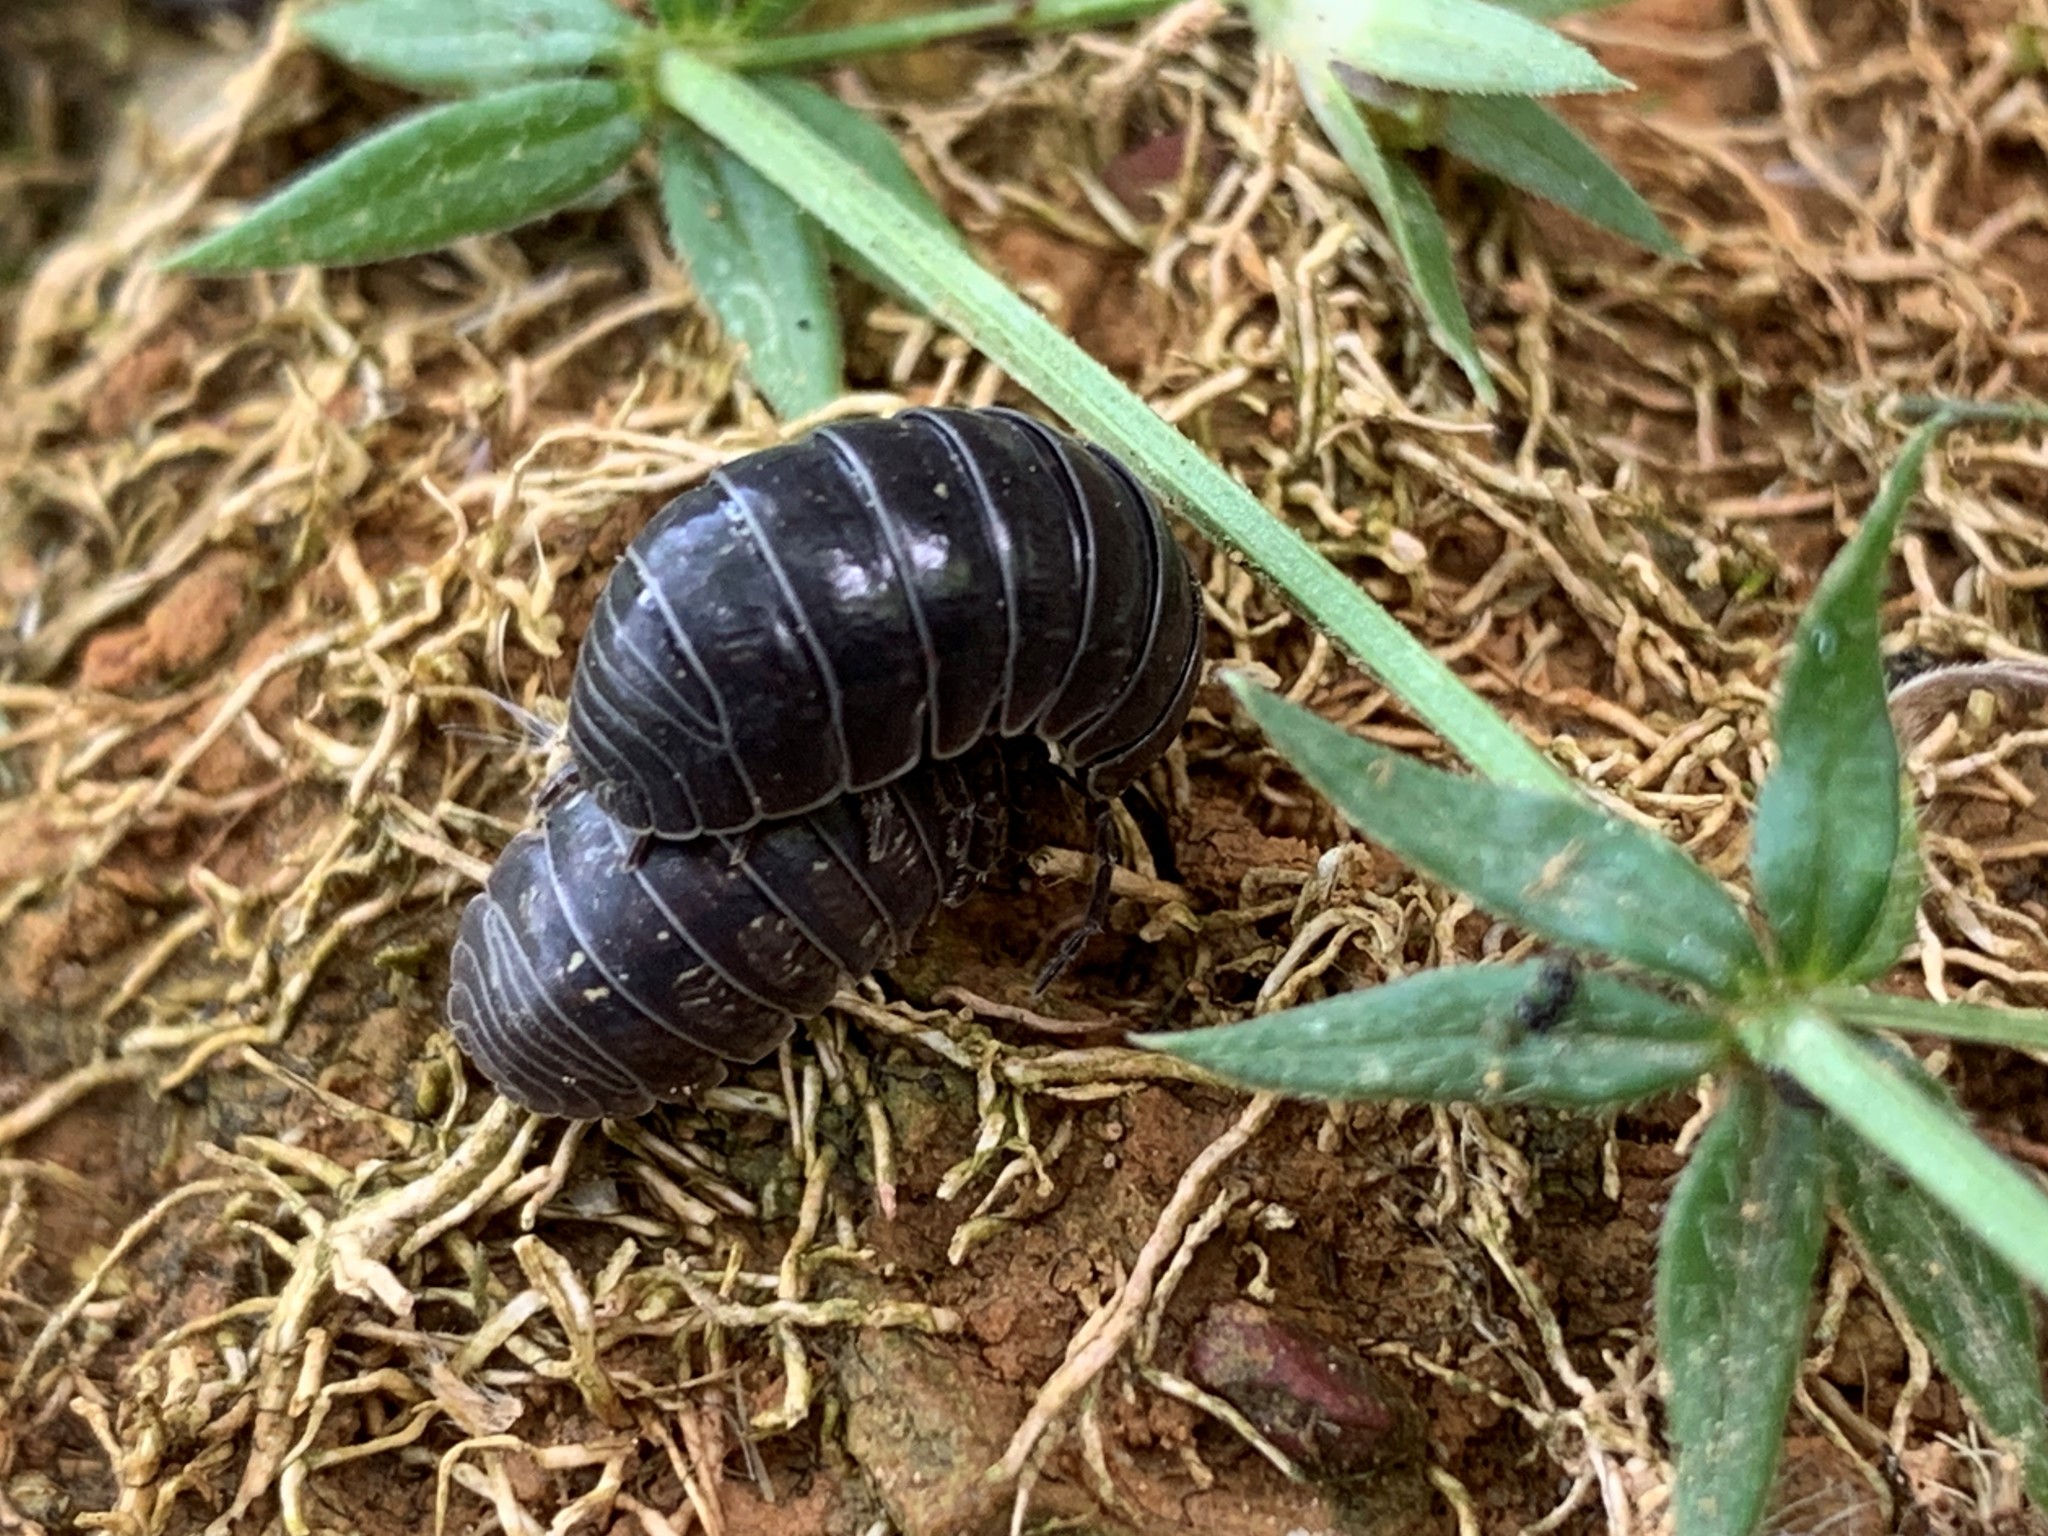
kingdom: Animalia
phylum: Arthropoda
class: Malacostraca
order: Isopoda
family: Armadillidiidae
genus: Armadillidium
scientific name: Armadillidium vulgare
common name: Common pill woodlouse
